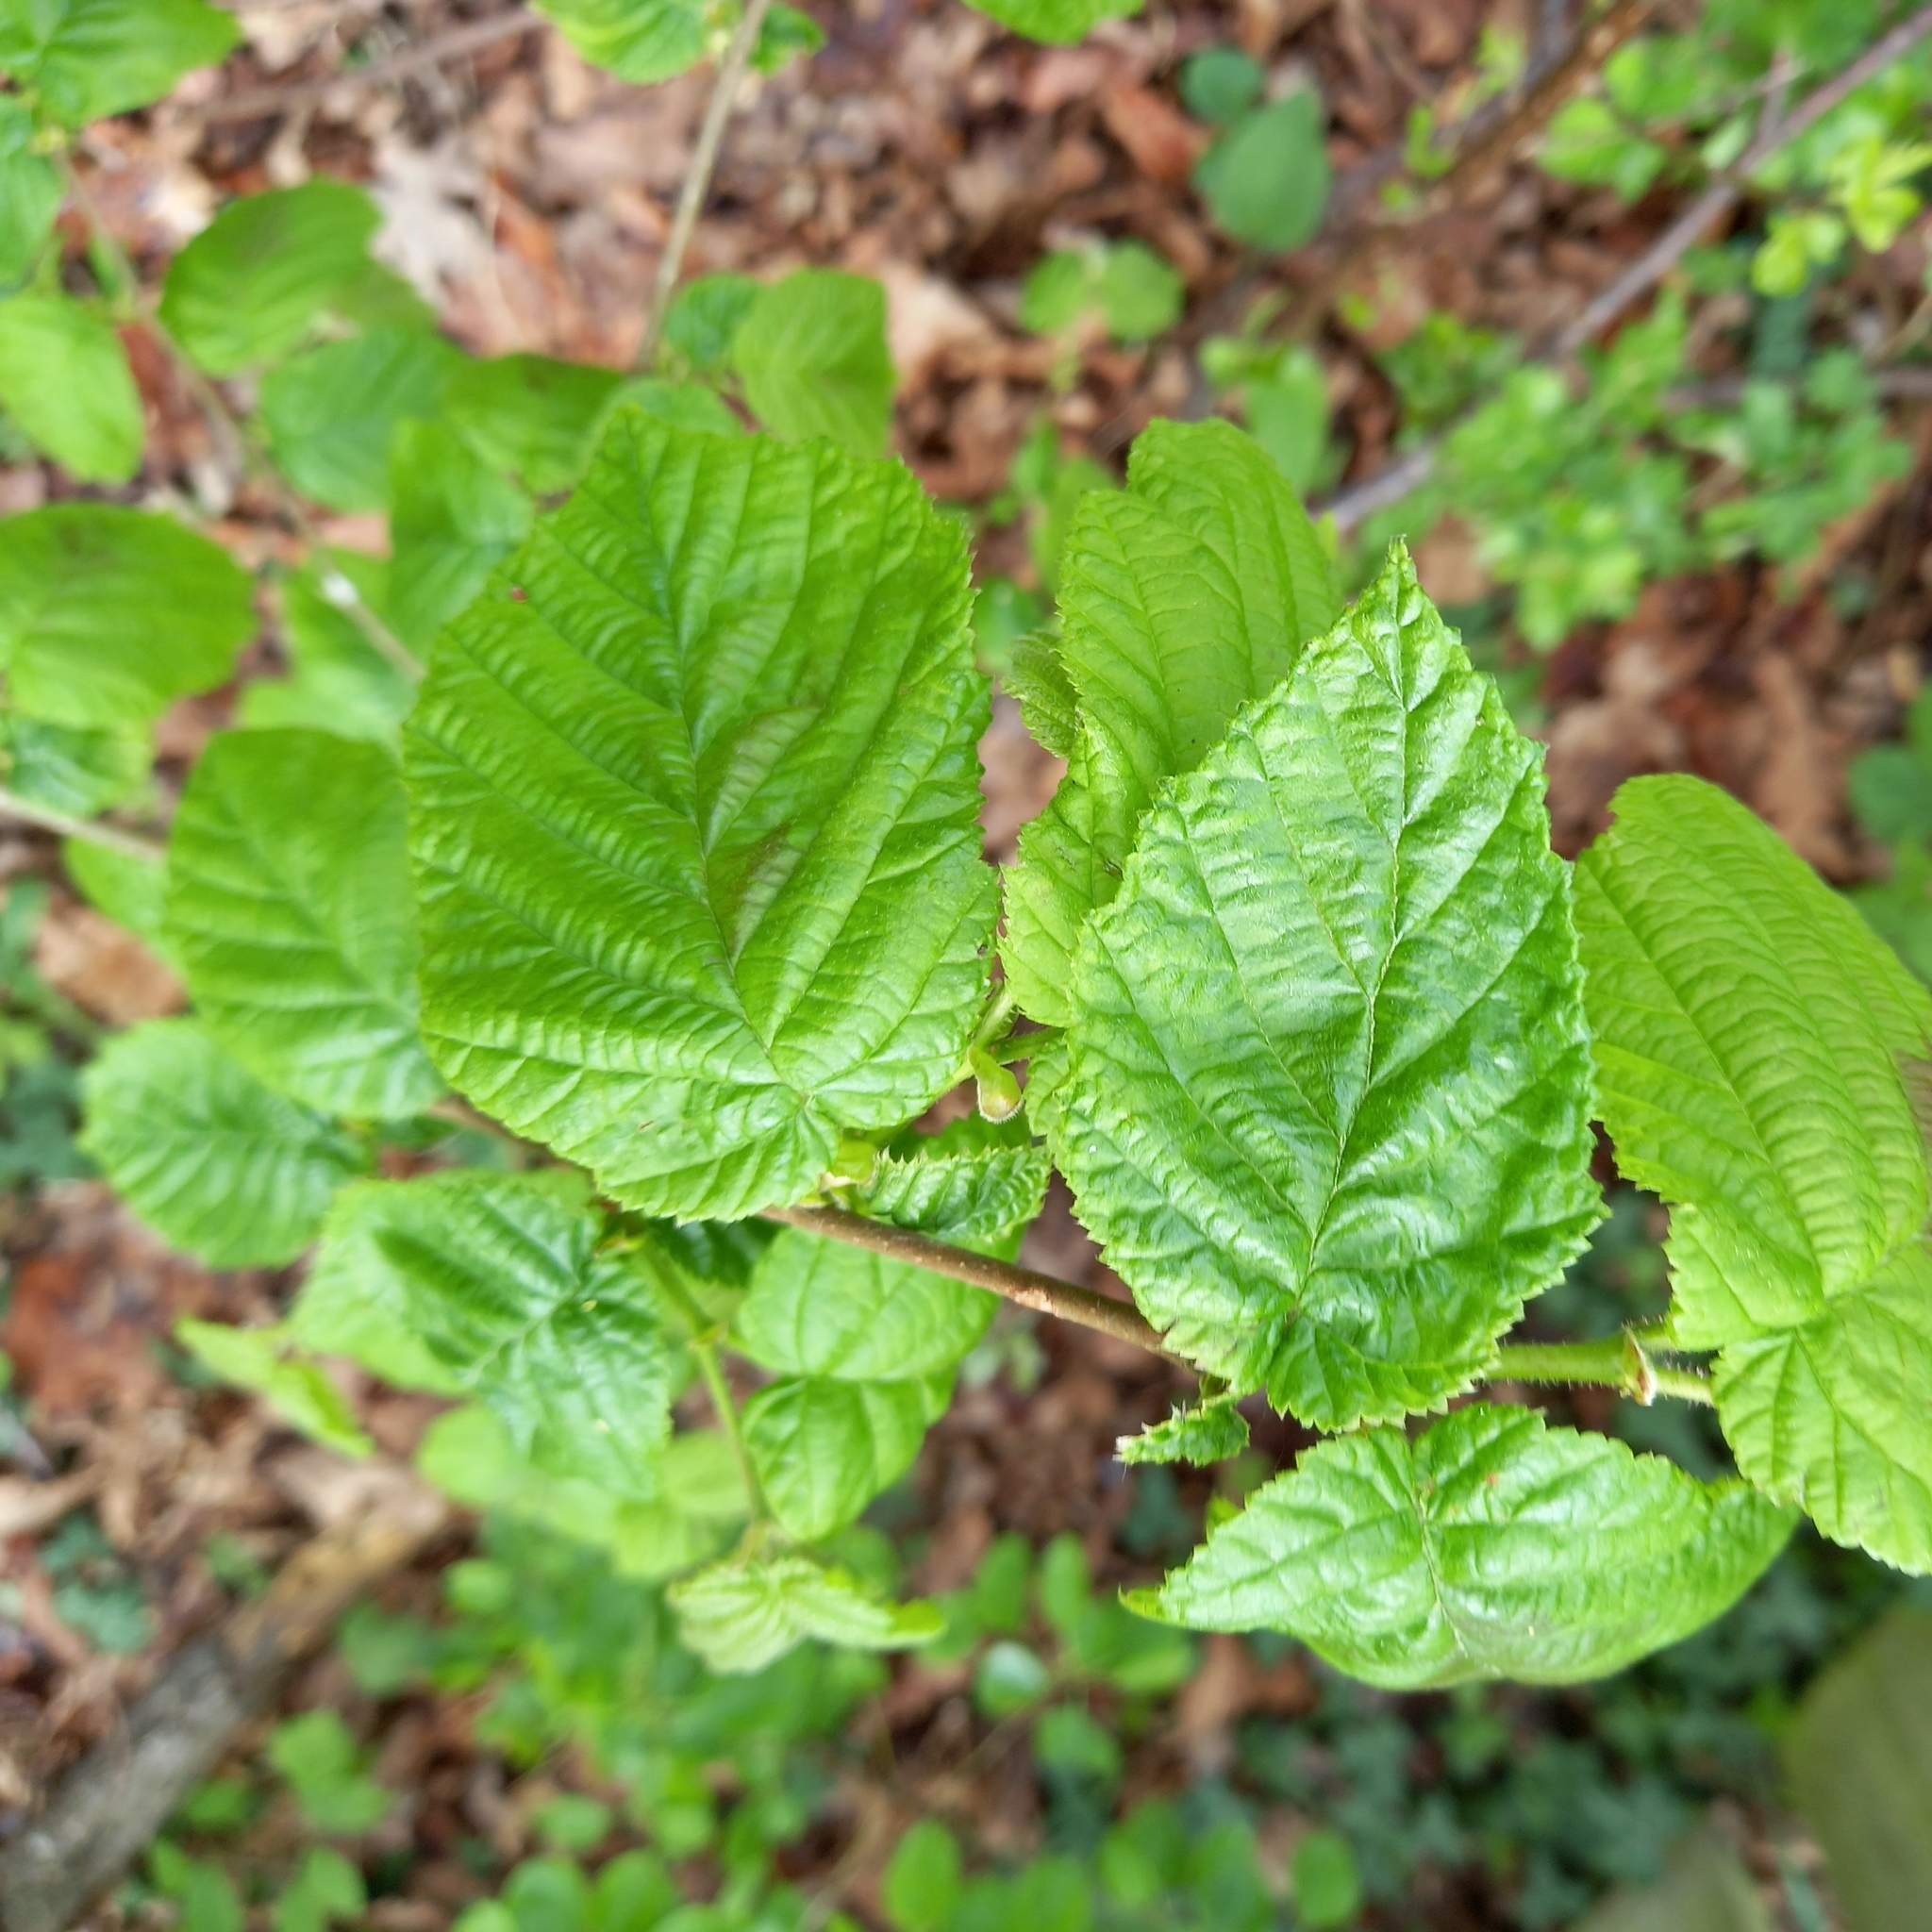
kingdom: Plantae
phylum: Tracheophyta
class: Magnoliopsida
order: Fagales
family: Betulaceae
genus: Corylus
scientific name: Corylus avellana
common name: European hazel
